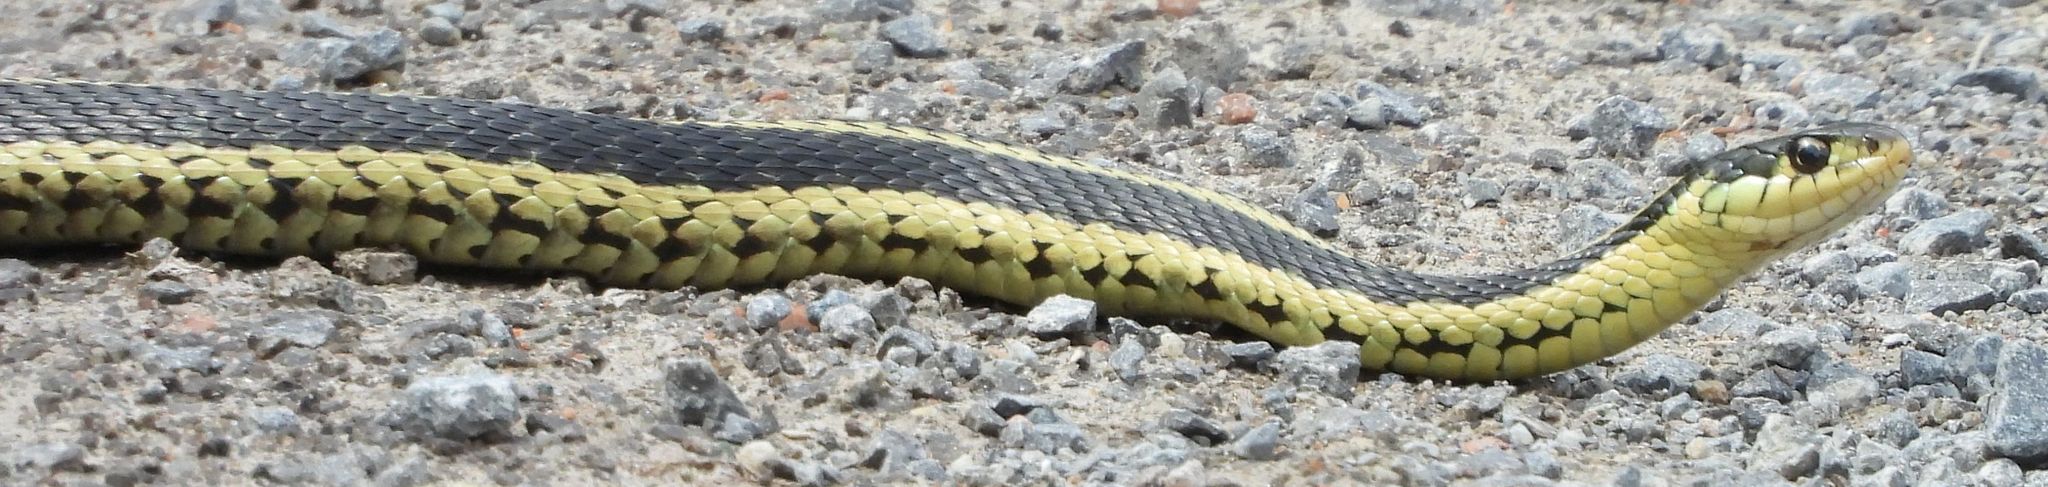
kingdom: Animalia
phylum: Chordata
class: Squamata
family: Colubridae
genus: Thamnophis
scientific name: Thamnophis sirtalis
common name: Common garter snake
